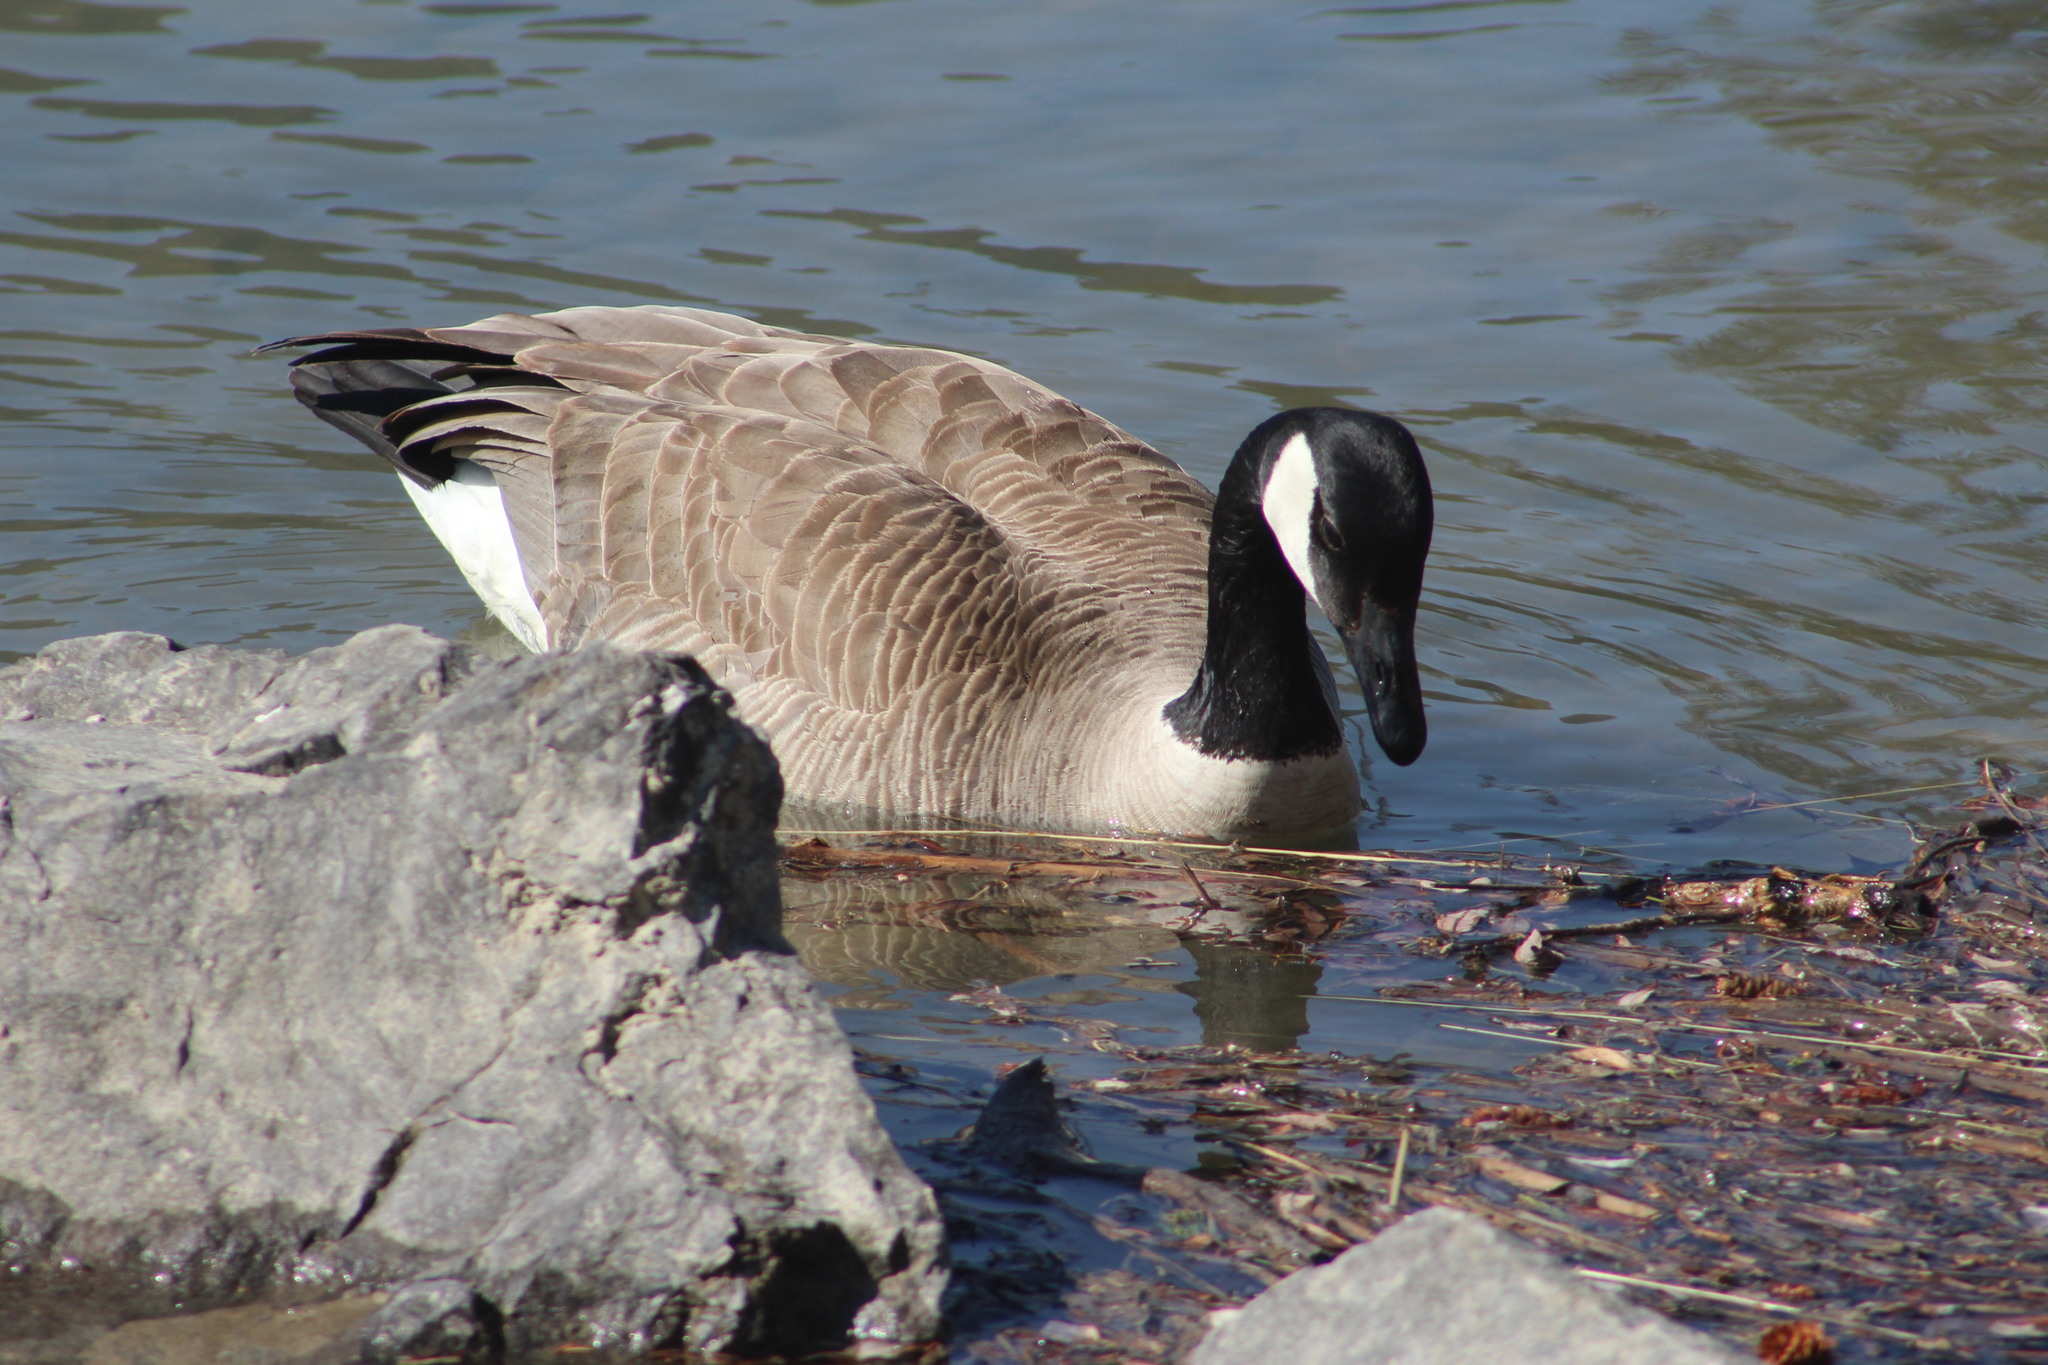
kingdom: Animalia
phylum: Chordata
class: Aves
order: Anseriformes
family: Anatidae
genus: Branta
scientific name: Branta canadensis
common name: Canada goose
